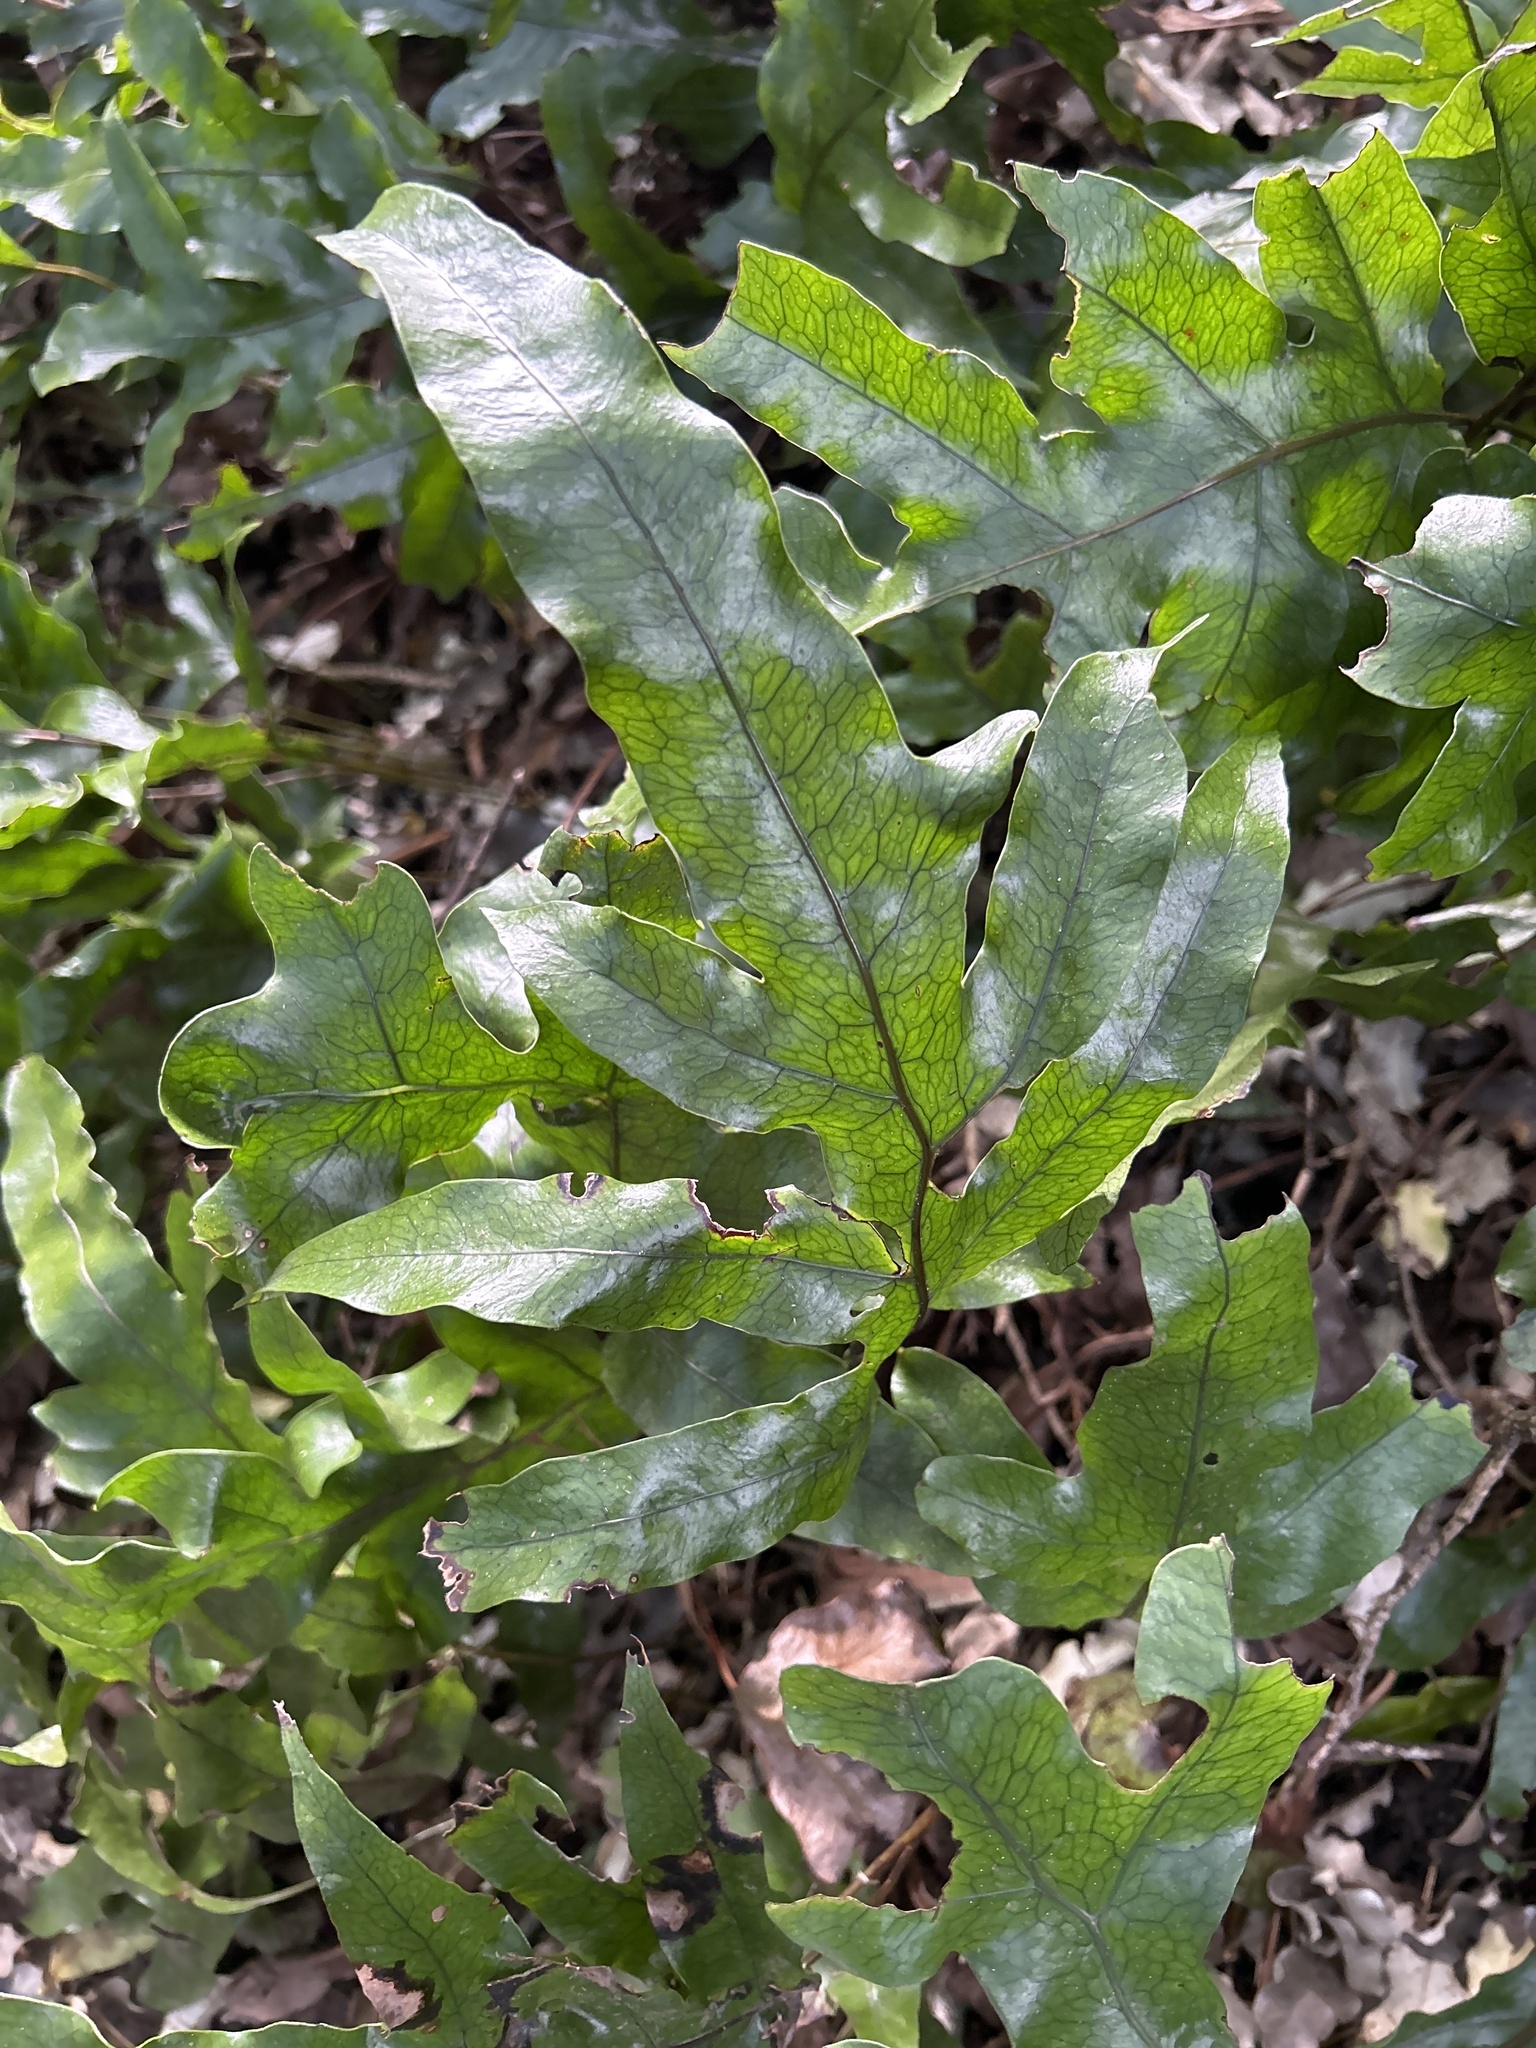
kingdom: Plantae
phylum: Tracheophyta
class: Polypodiopsida
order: Polypodiales
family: Polypodiaceae
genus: Lecanopteris
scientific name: Lecanopteris pustulata
